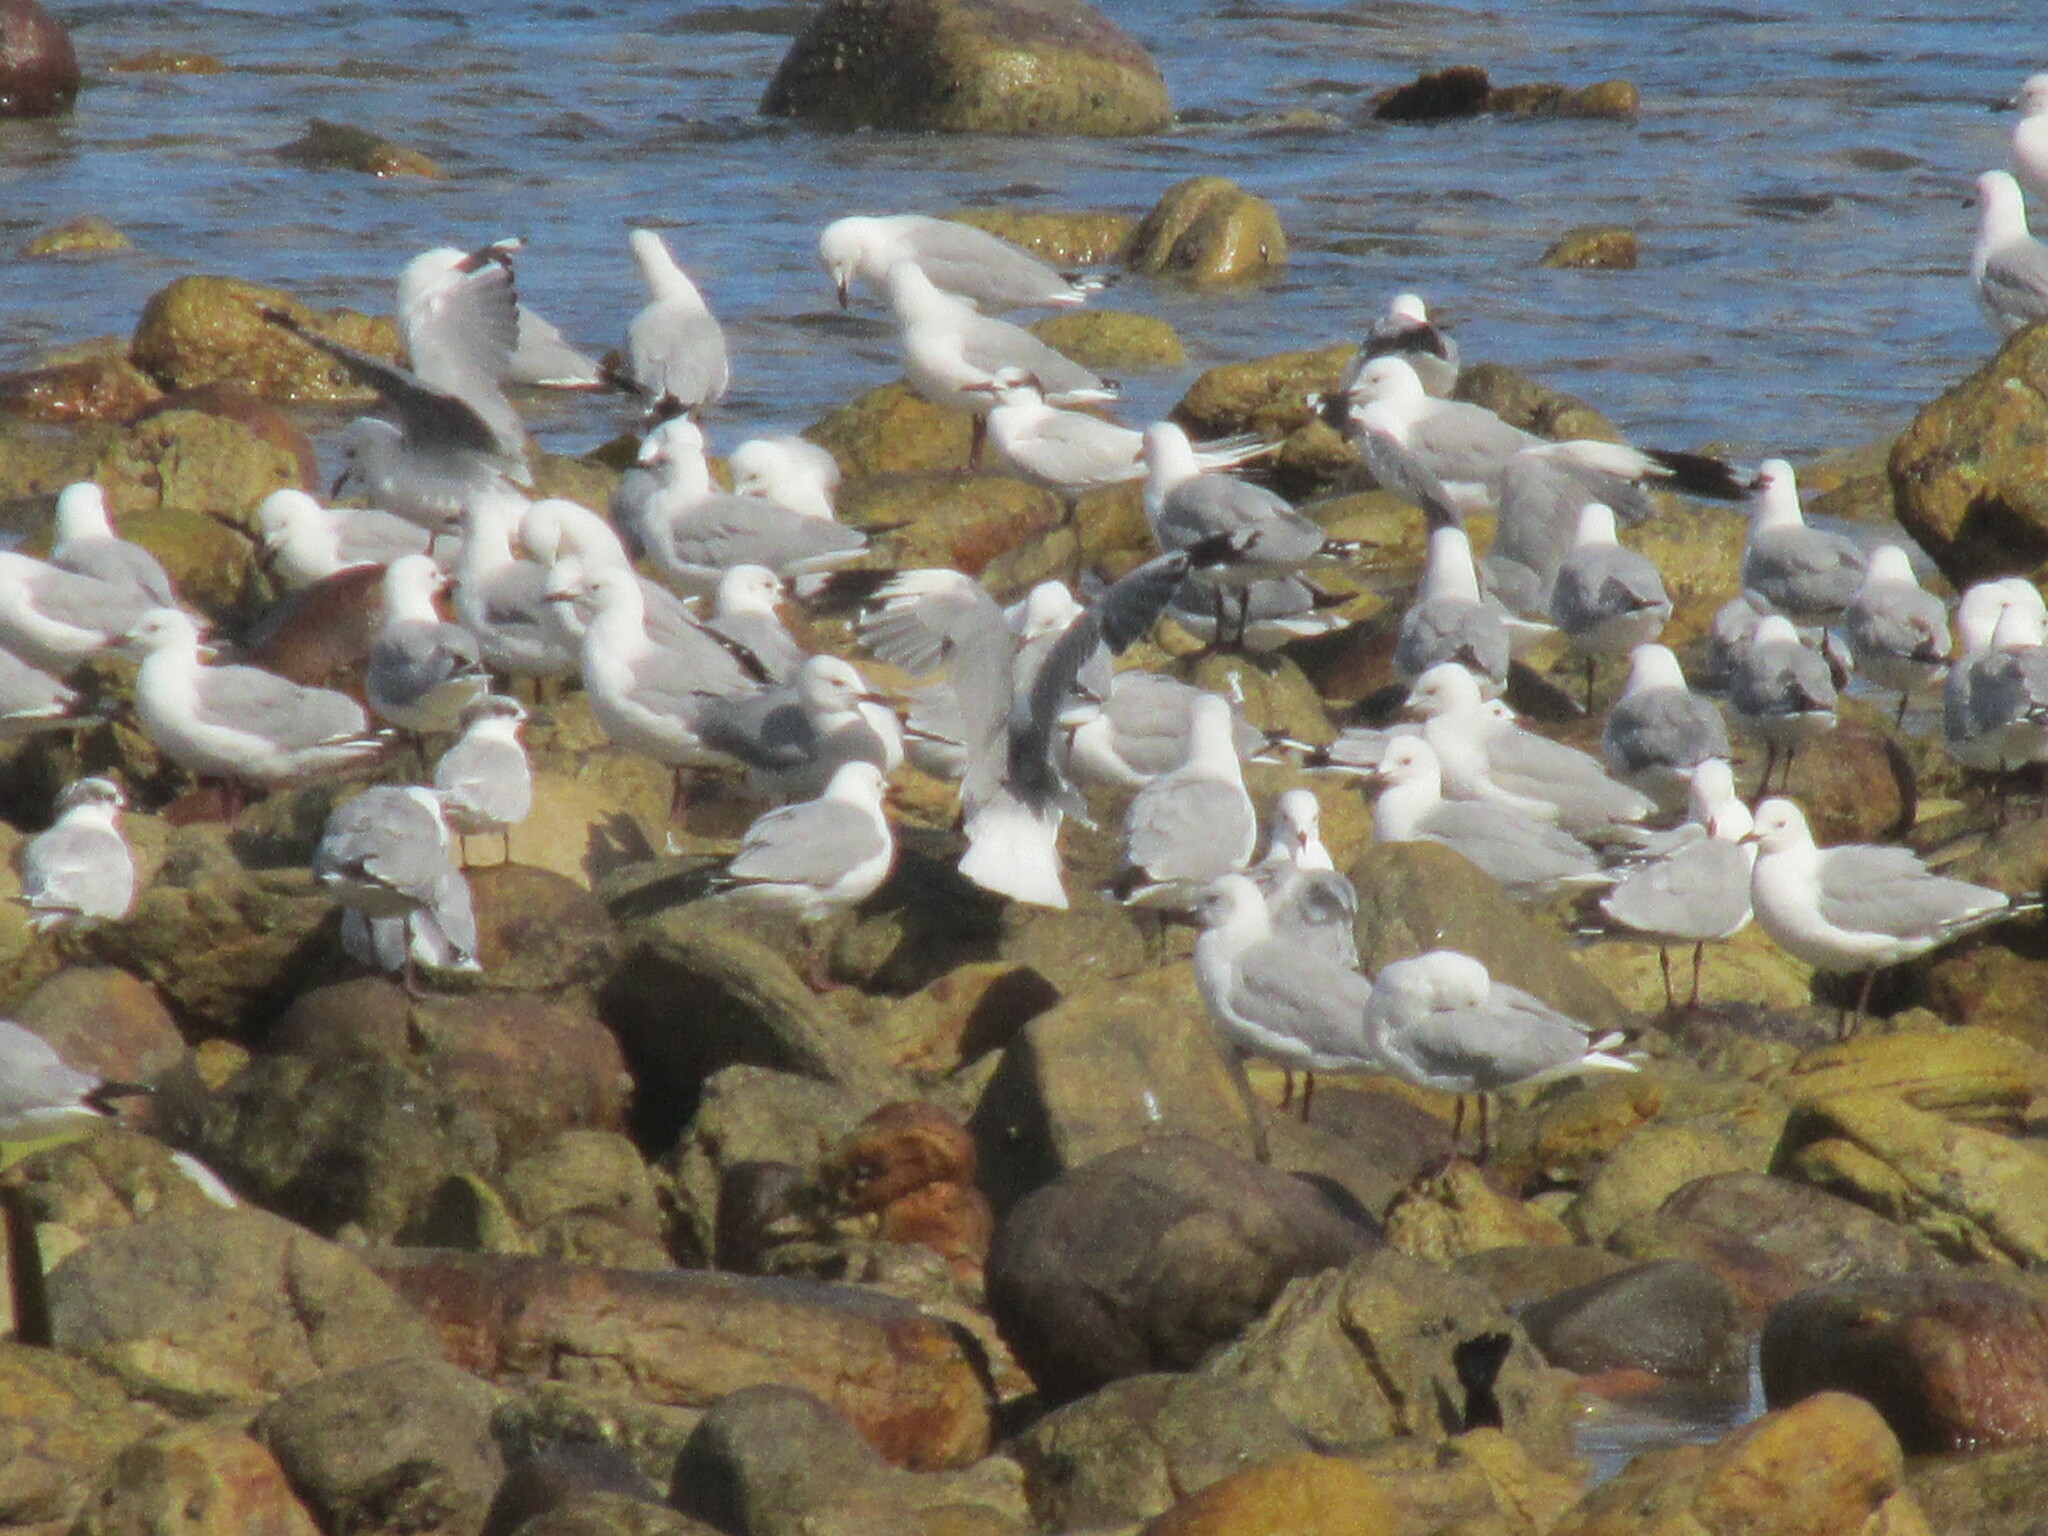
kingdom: Animalia
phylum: Chordata
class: Aves
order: Charadriiformes
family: Laridae
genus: Chroicocephalus
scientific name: Chroicocephalus hartlaubii
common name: Hartlaub's gull
